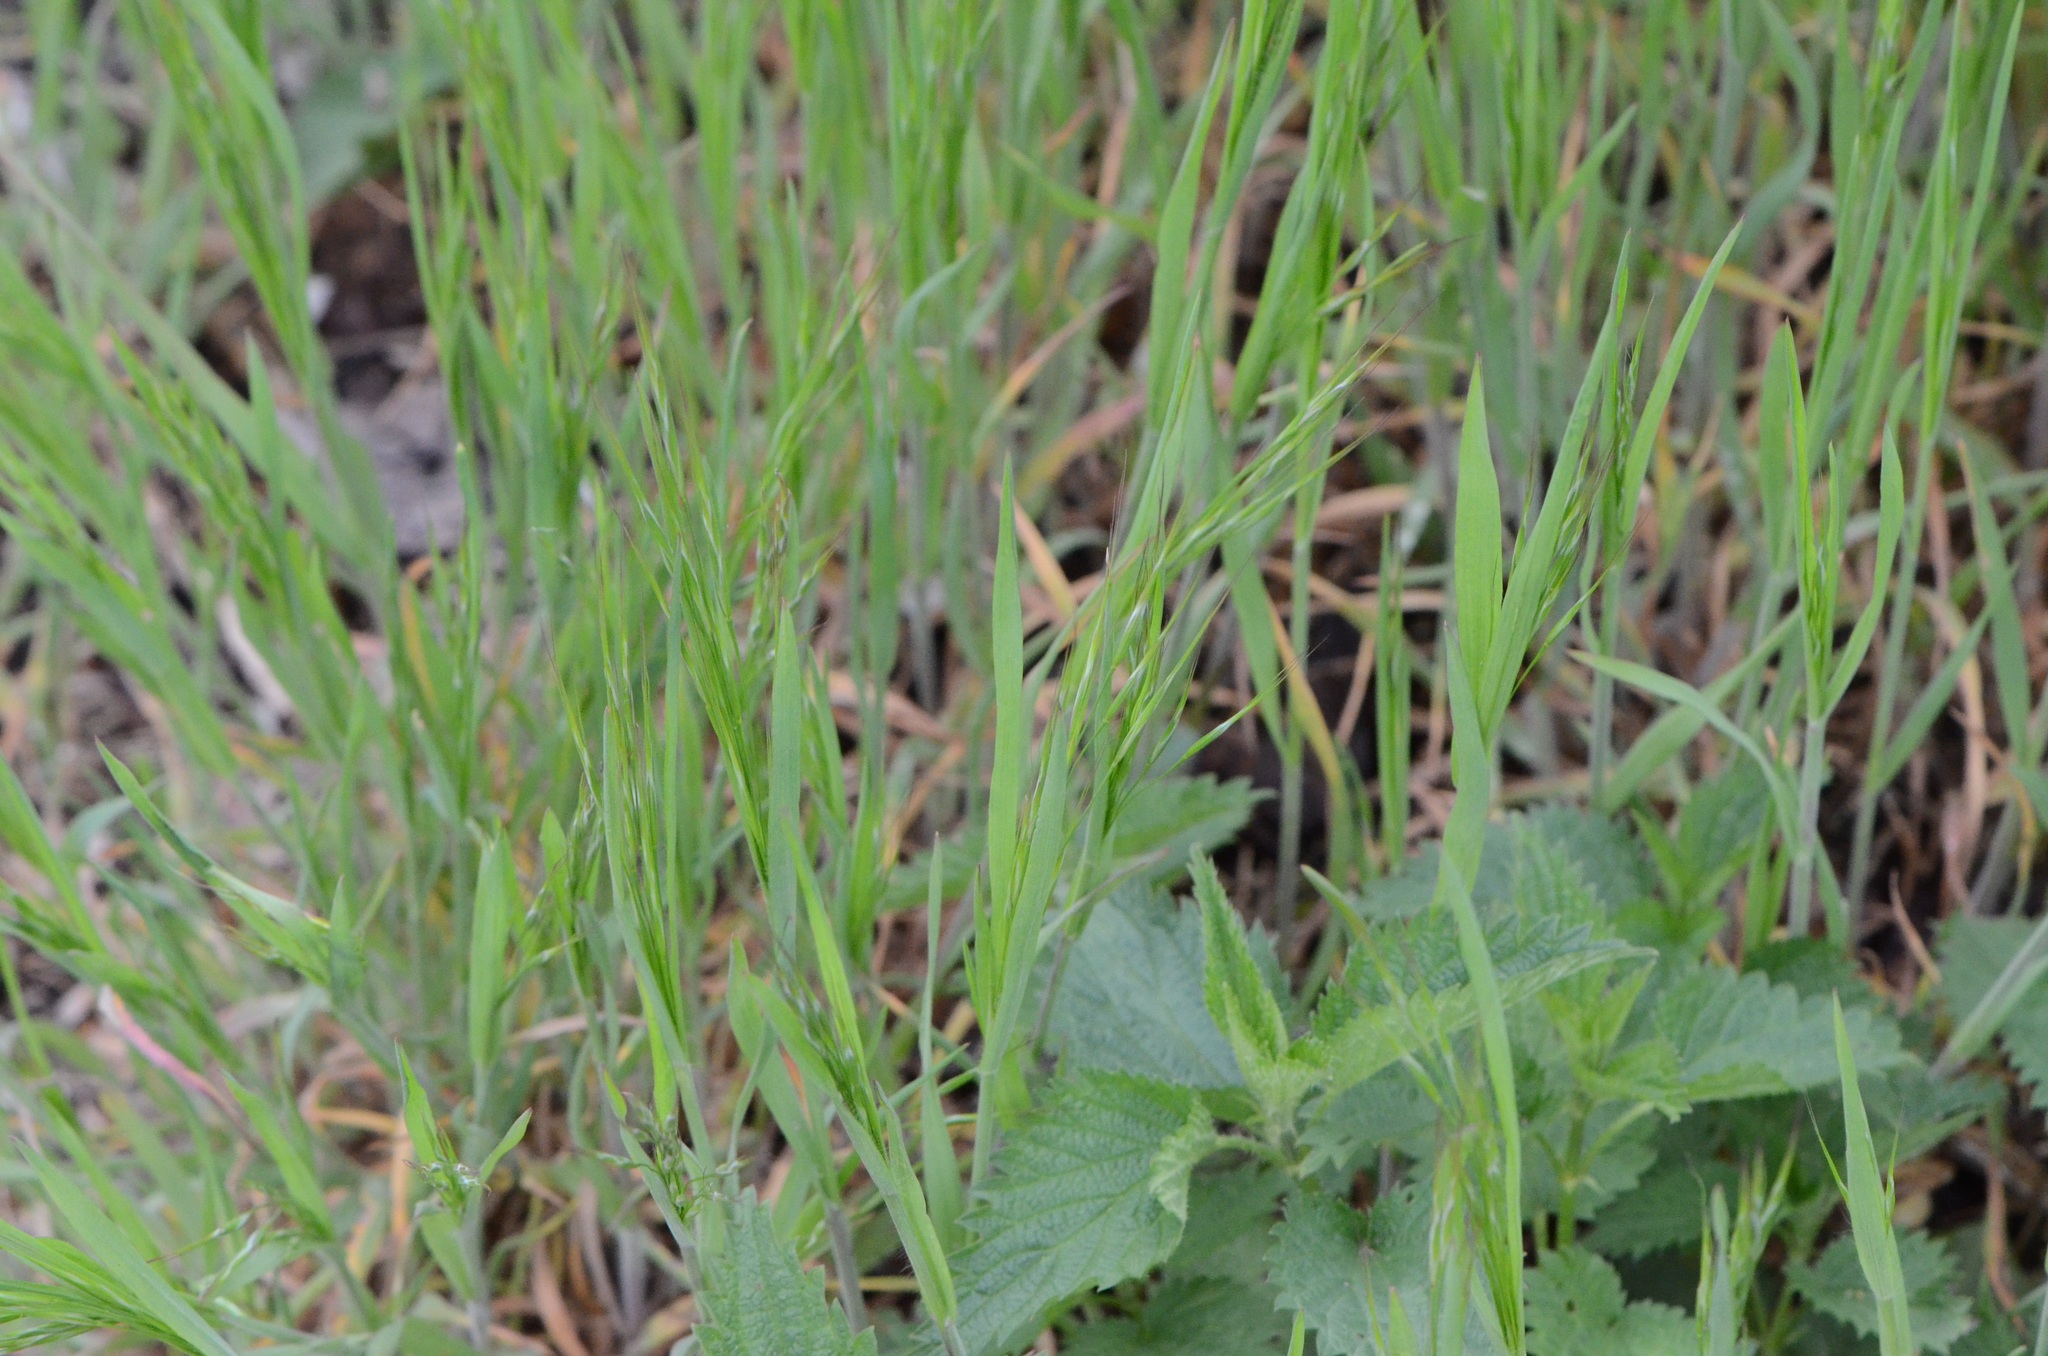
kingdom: Plantae
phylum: Tracheophyta
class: Liliopsida
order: Poales
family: Poaceae
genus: Bromus
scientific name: Bromus sterilis
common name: Poverty brome
